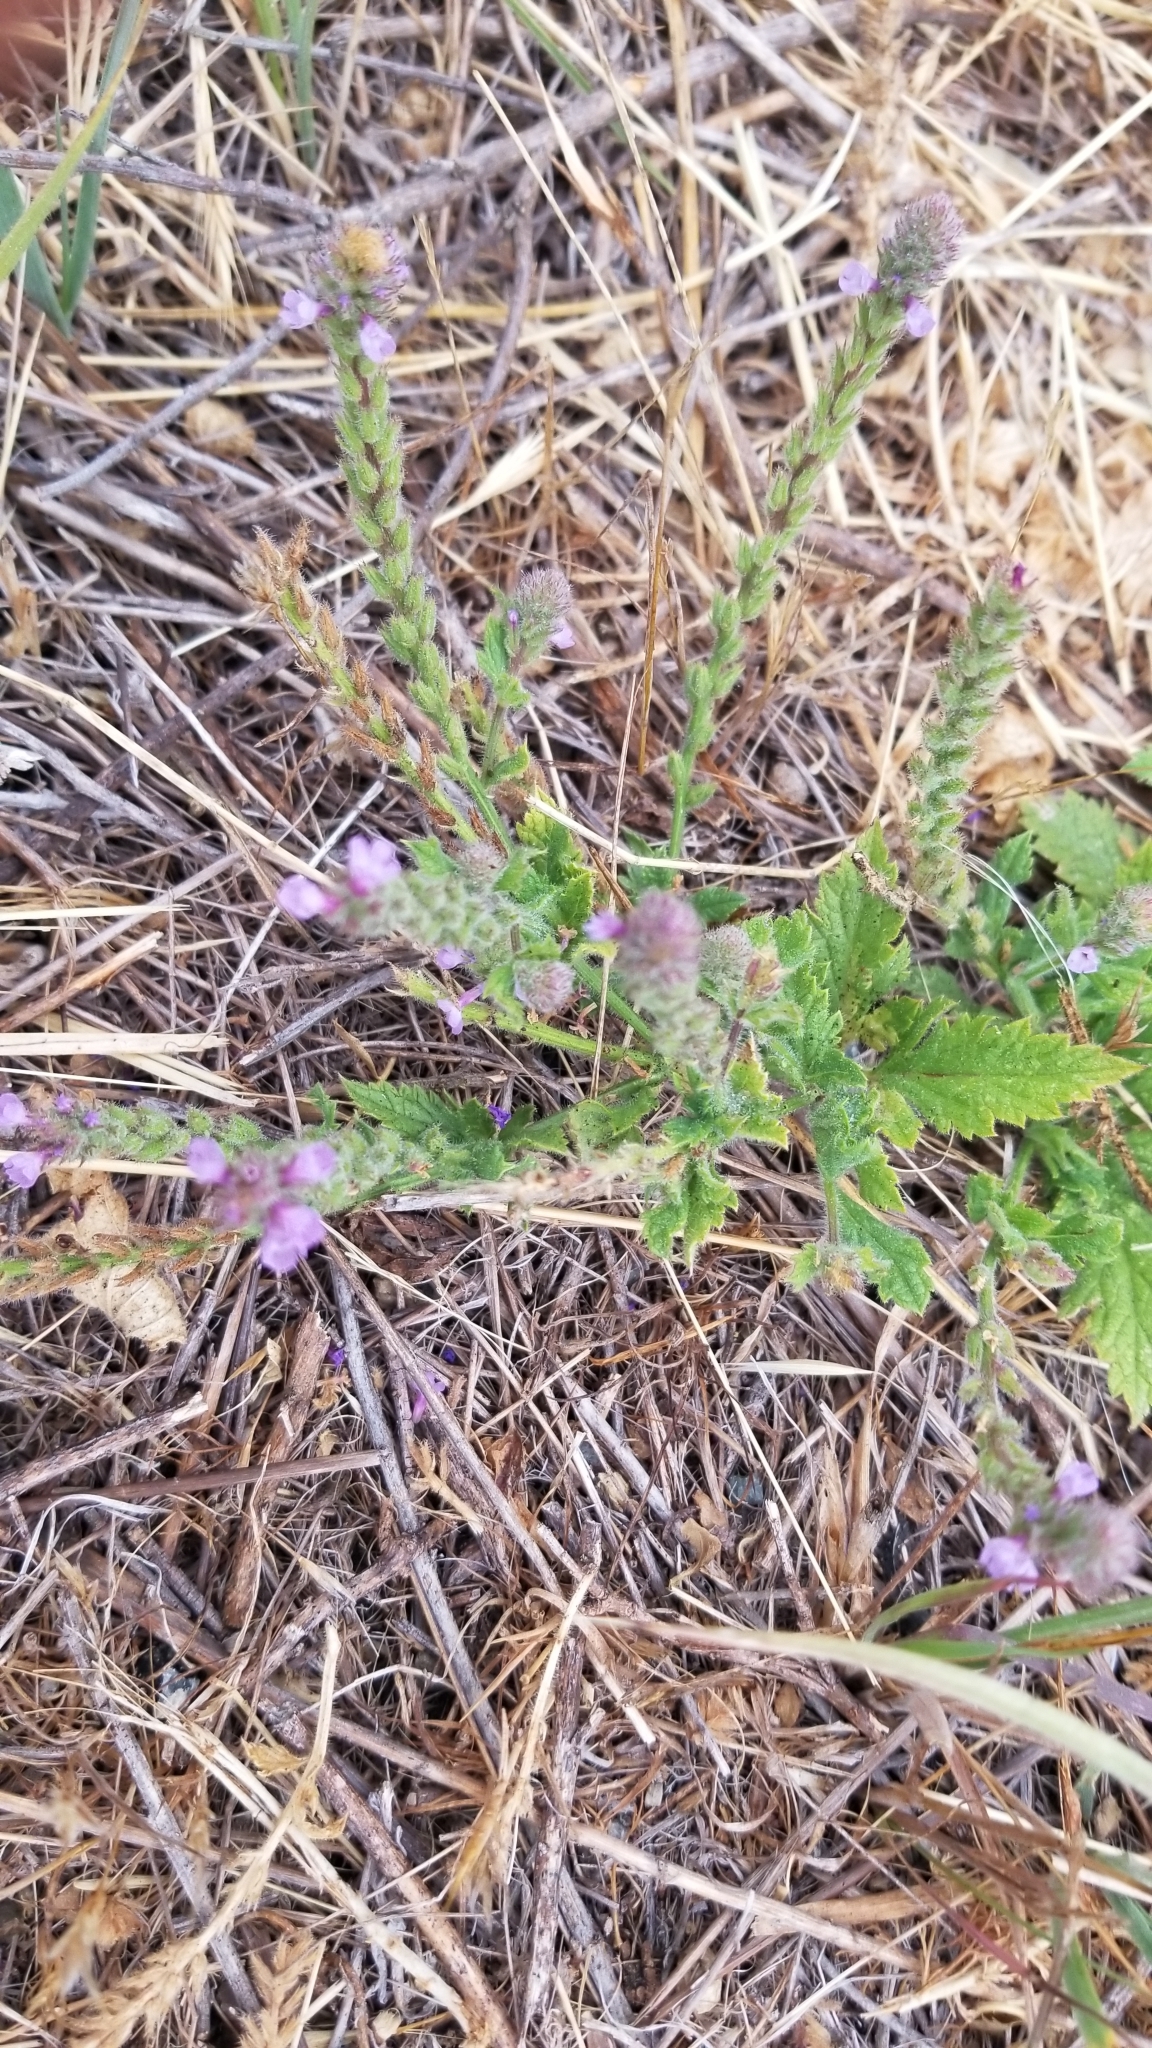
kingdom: Plantae
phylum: Tracheophyta
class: Magnoliopsida
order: Lamiales
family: Verbenaceae
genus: Verbena
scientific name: Verbena lasiostachys
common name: Vervain
